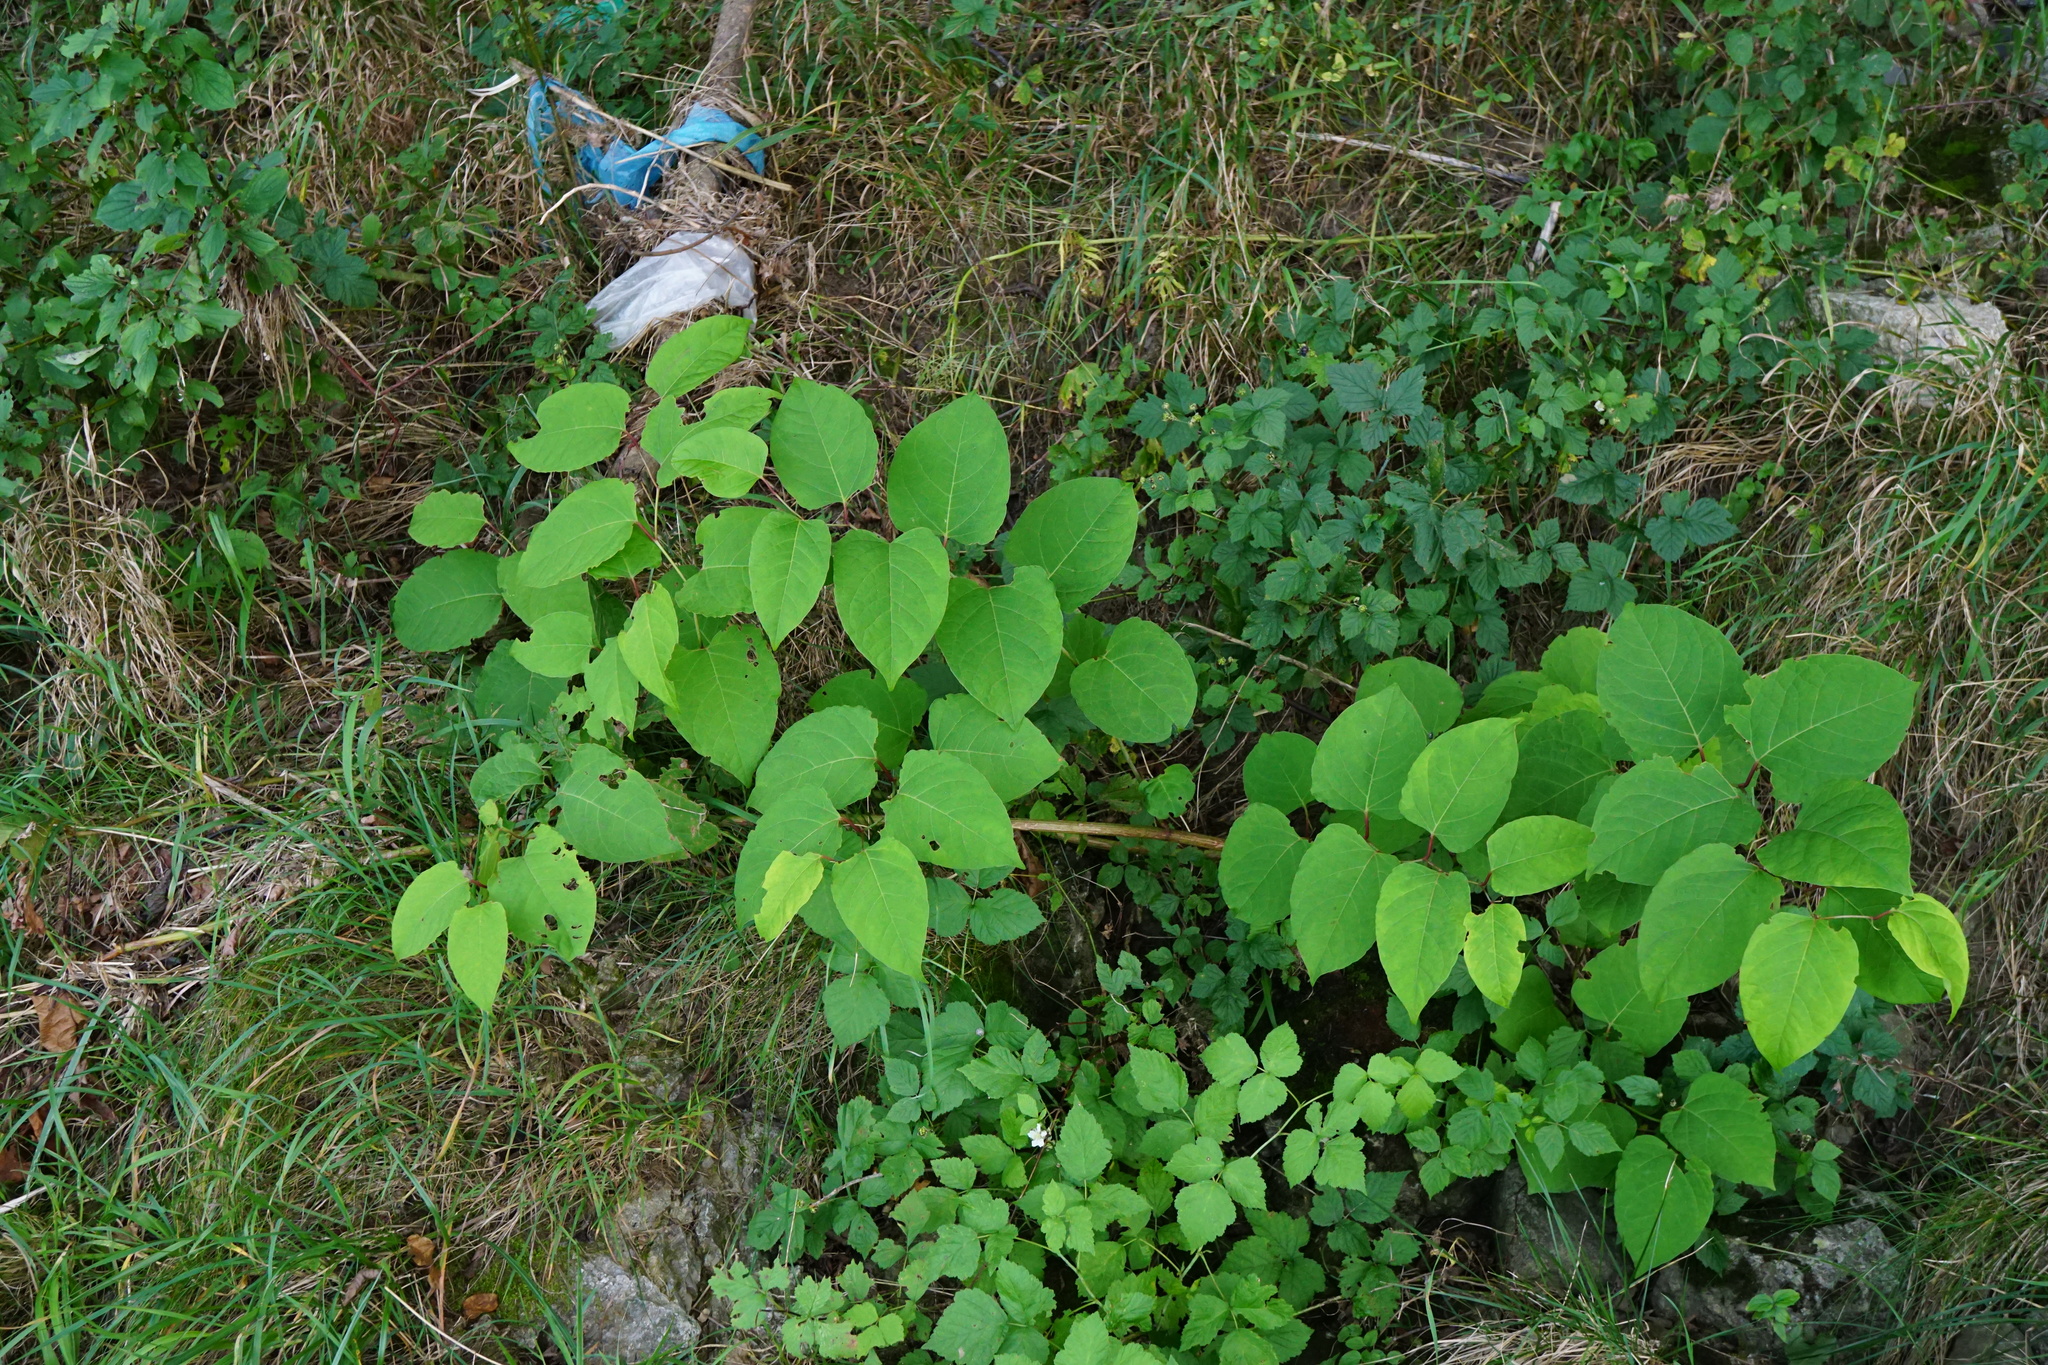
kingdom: Plantae
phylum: Tracheophyta
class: Magnoliopsida
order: Caryophyllales
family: Polygonaceae
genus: Reynoutria
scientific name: Reynoutria bohemica
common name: Bohemian knotweed
